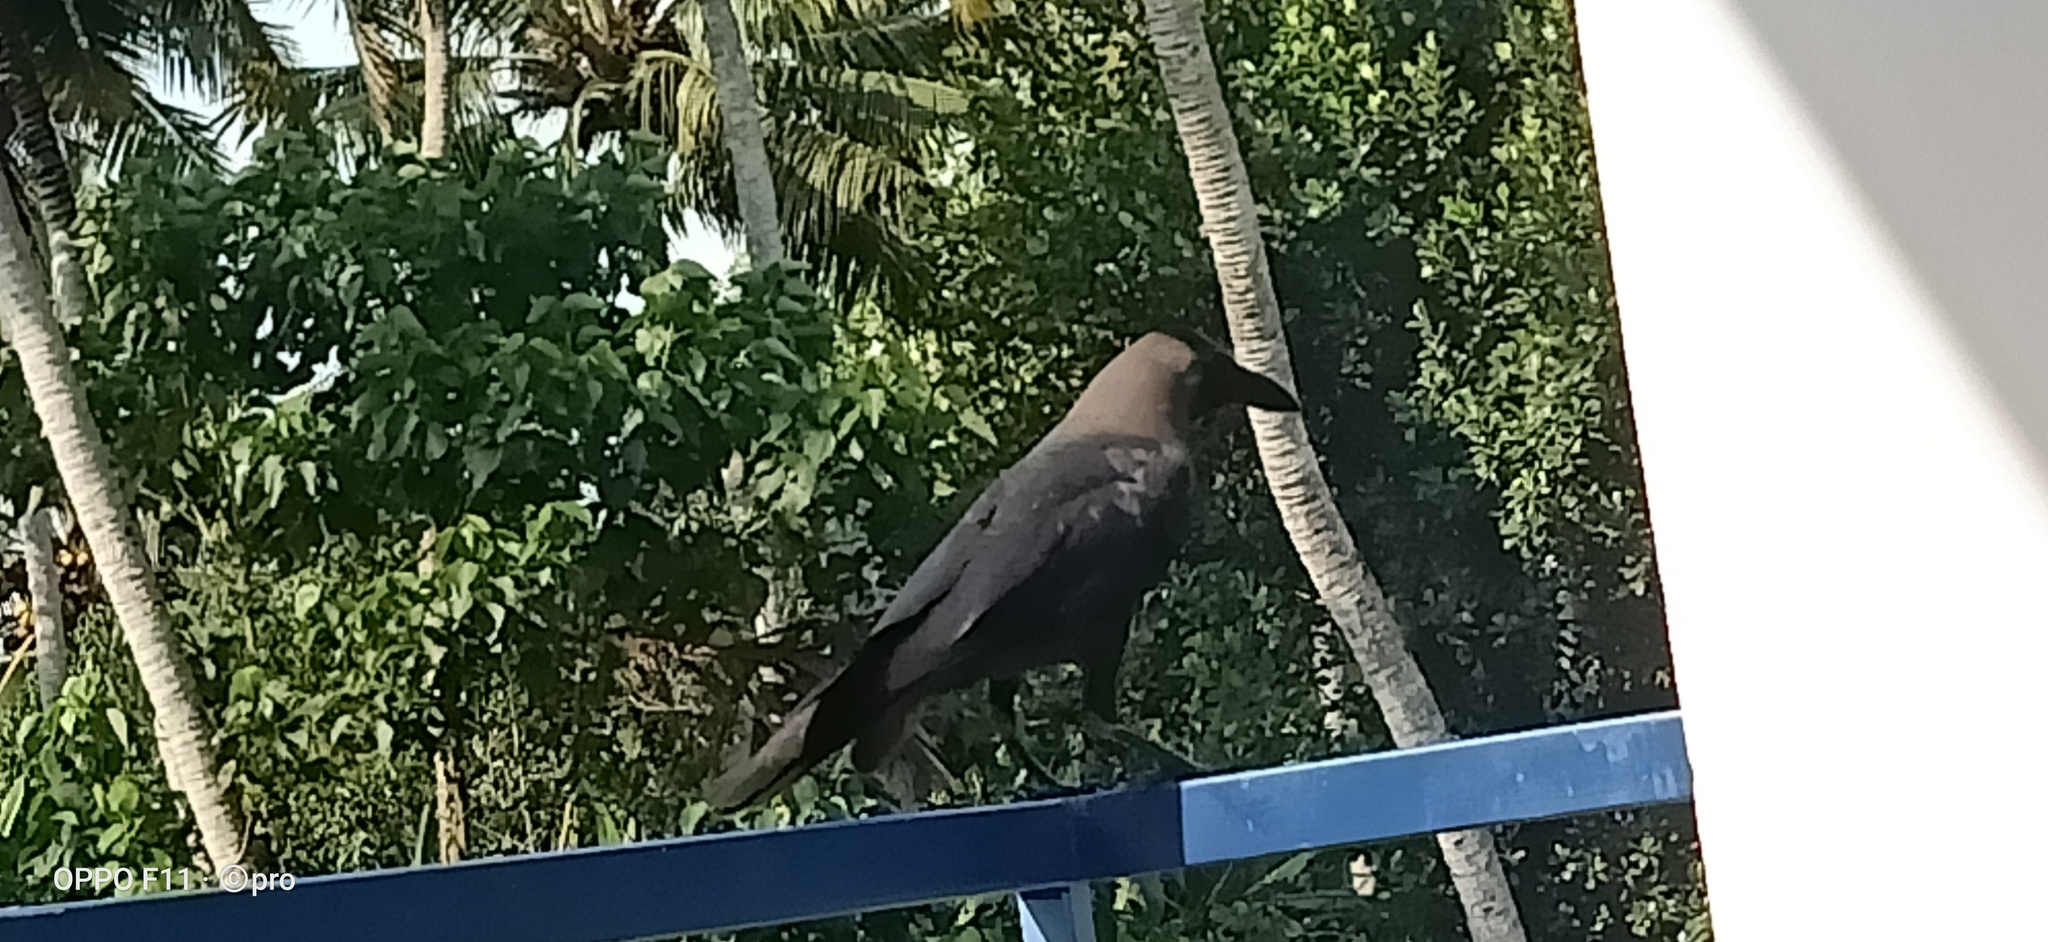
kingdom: Animalia
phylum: Chordata
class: Aves
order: Passeriformes
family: Corvidae
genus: Corvus
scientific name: Corvus splendens
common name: House crow
